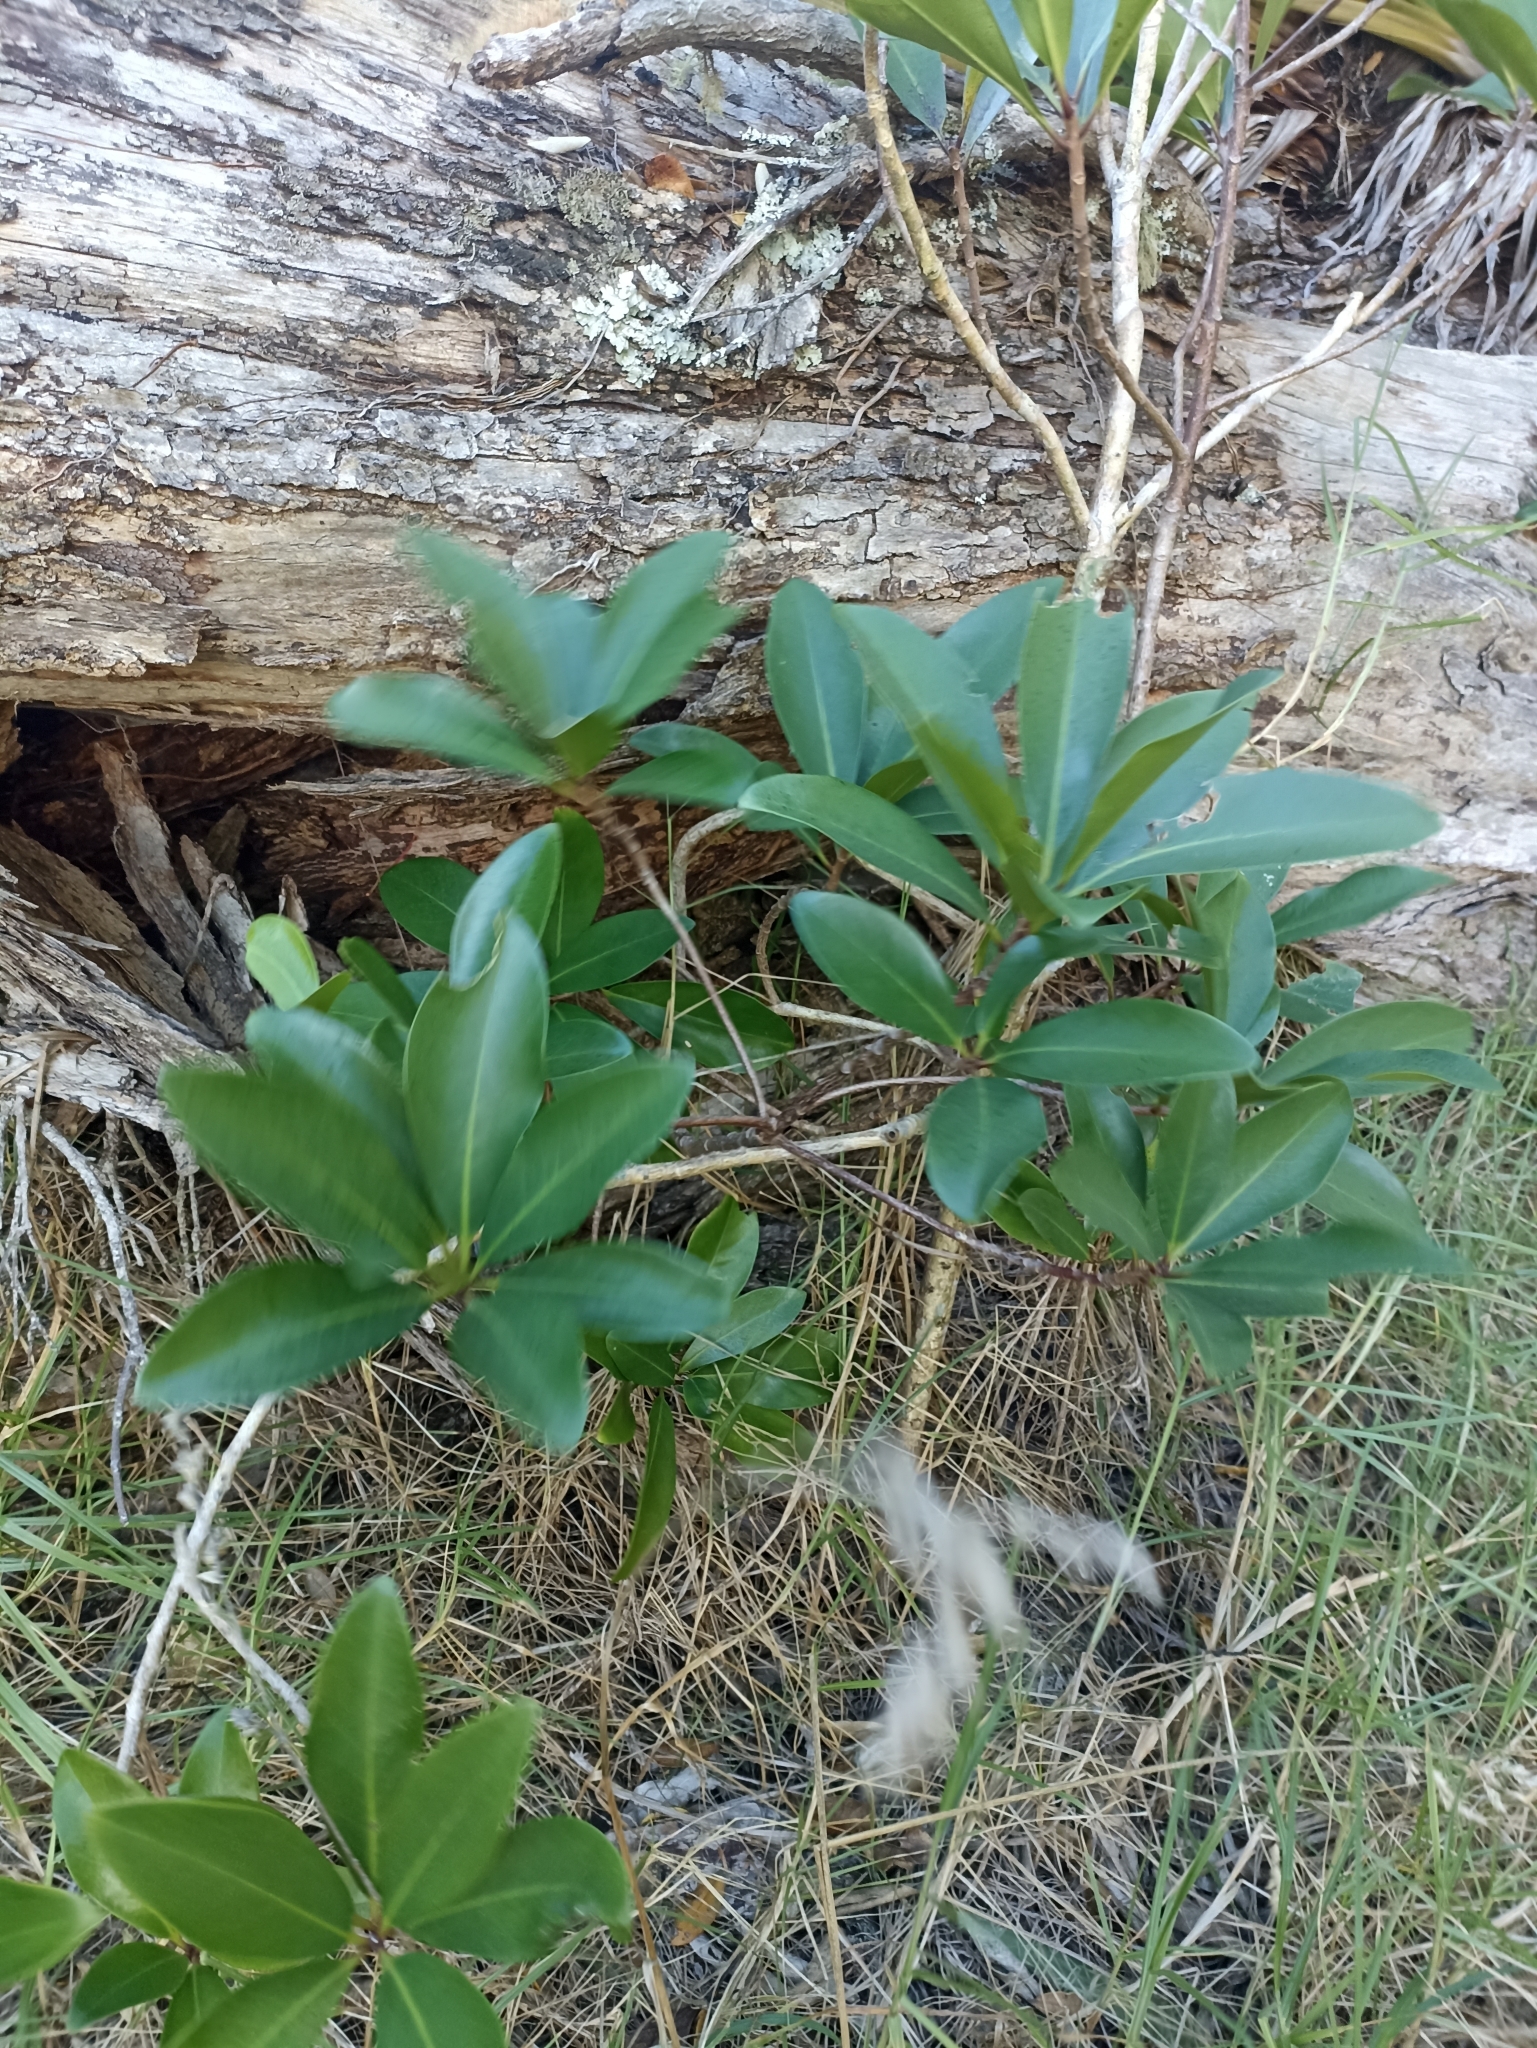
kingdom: Plantae
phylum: Tracheophyta
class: Magnoliopsida
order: Cucurbitales
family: Corynocarpaceae
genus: Corynocarpus
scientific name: Corynocarpus laevigatus
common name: New zealand laurel
